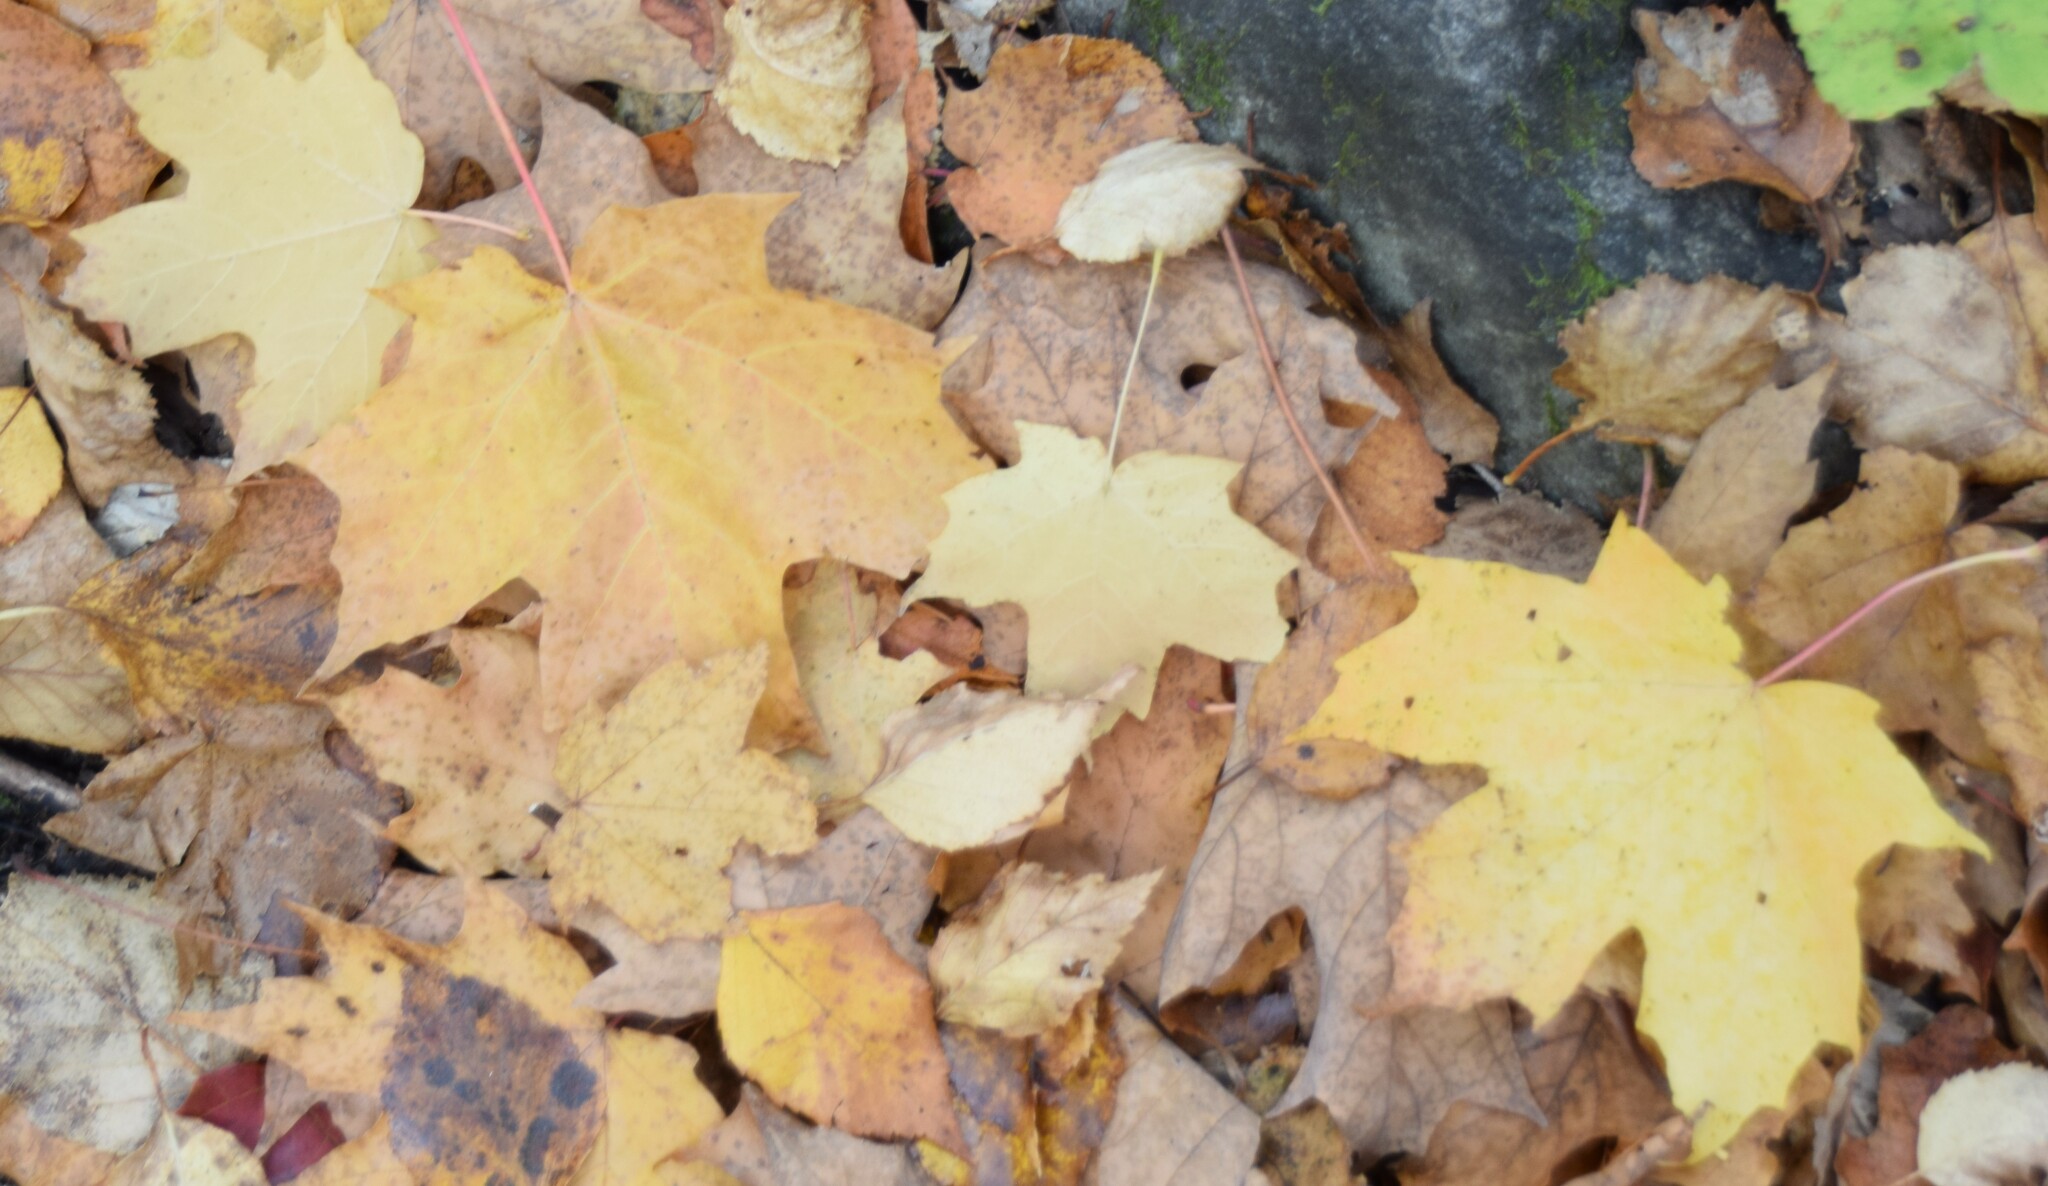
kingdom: Plantae
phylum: Tracheophyta
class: Magnoliopsida
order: Sapindales
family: Sapindaceae
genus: Acer
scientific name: Acer saccharum
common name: Sugar maple
